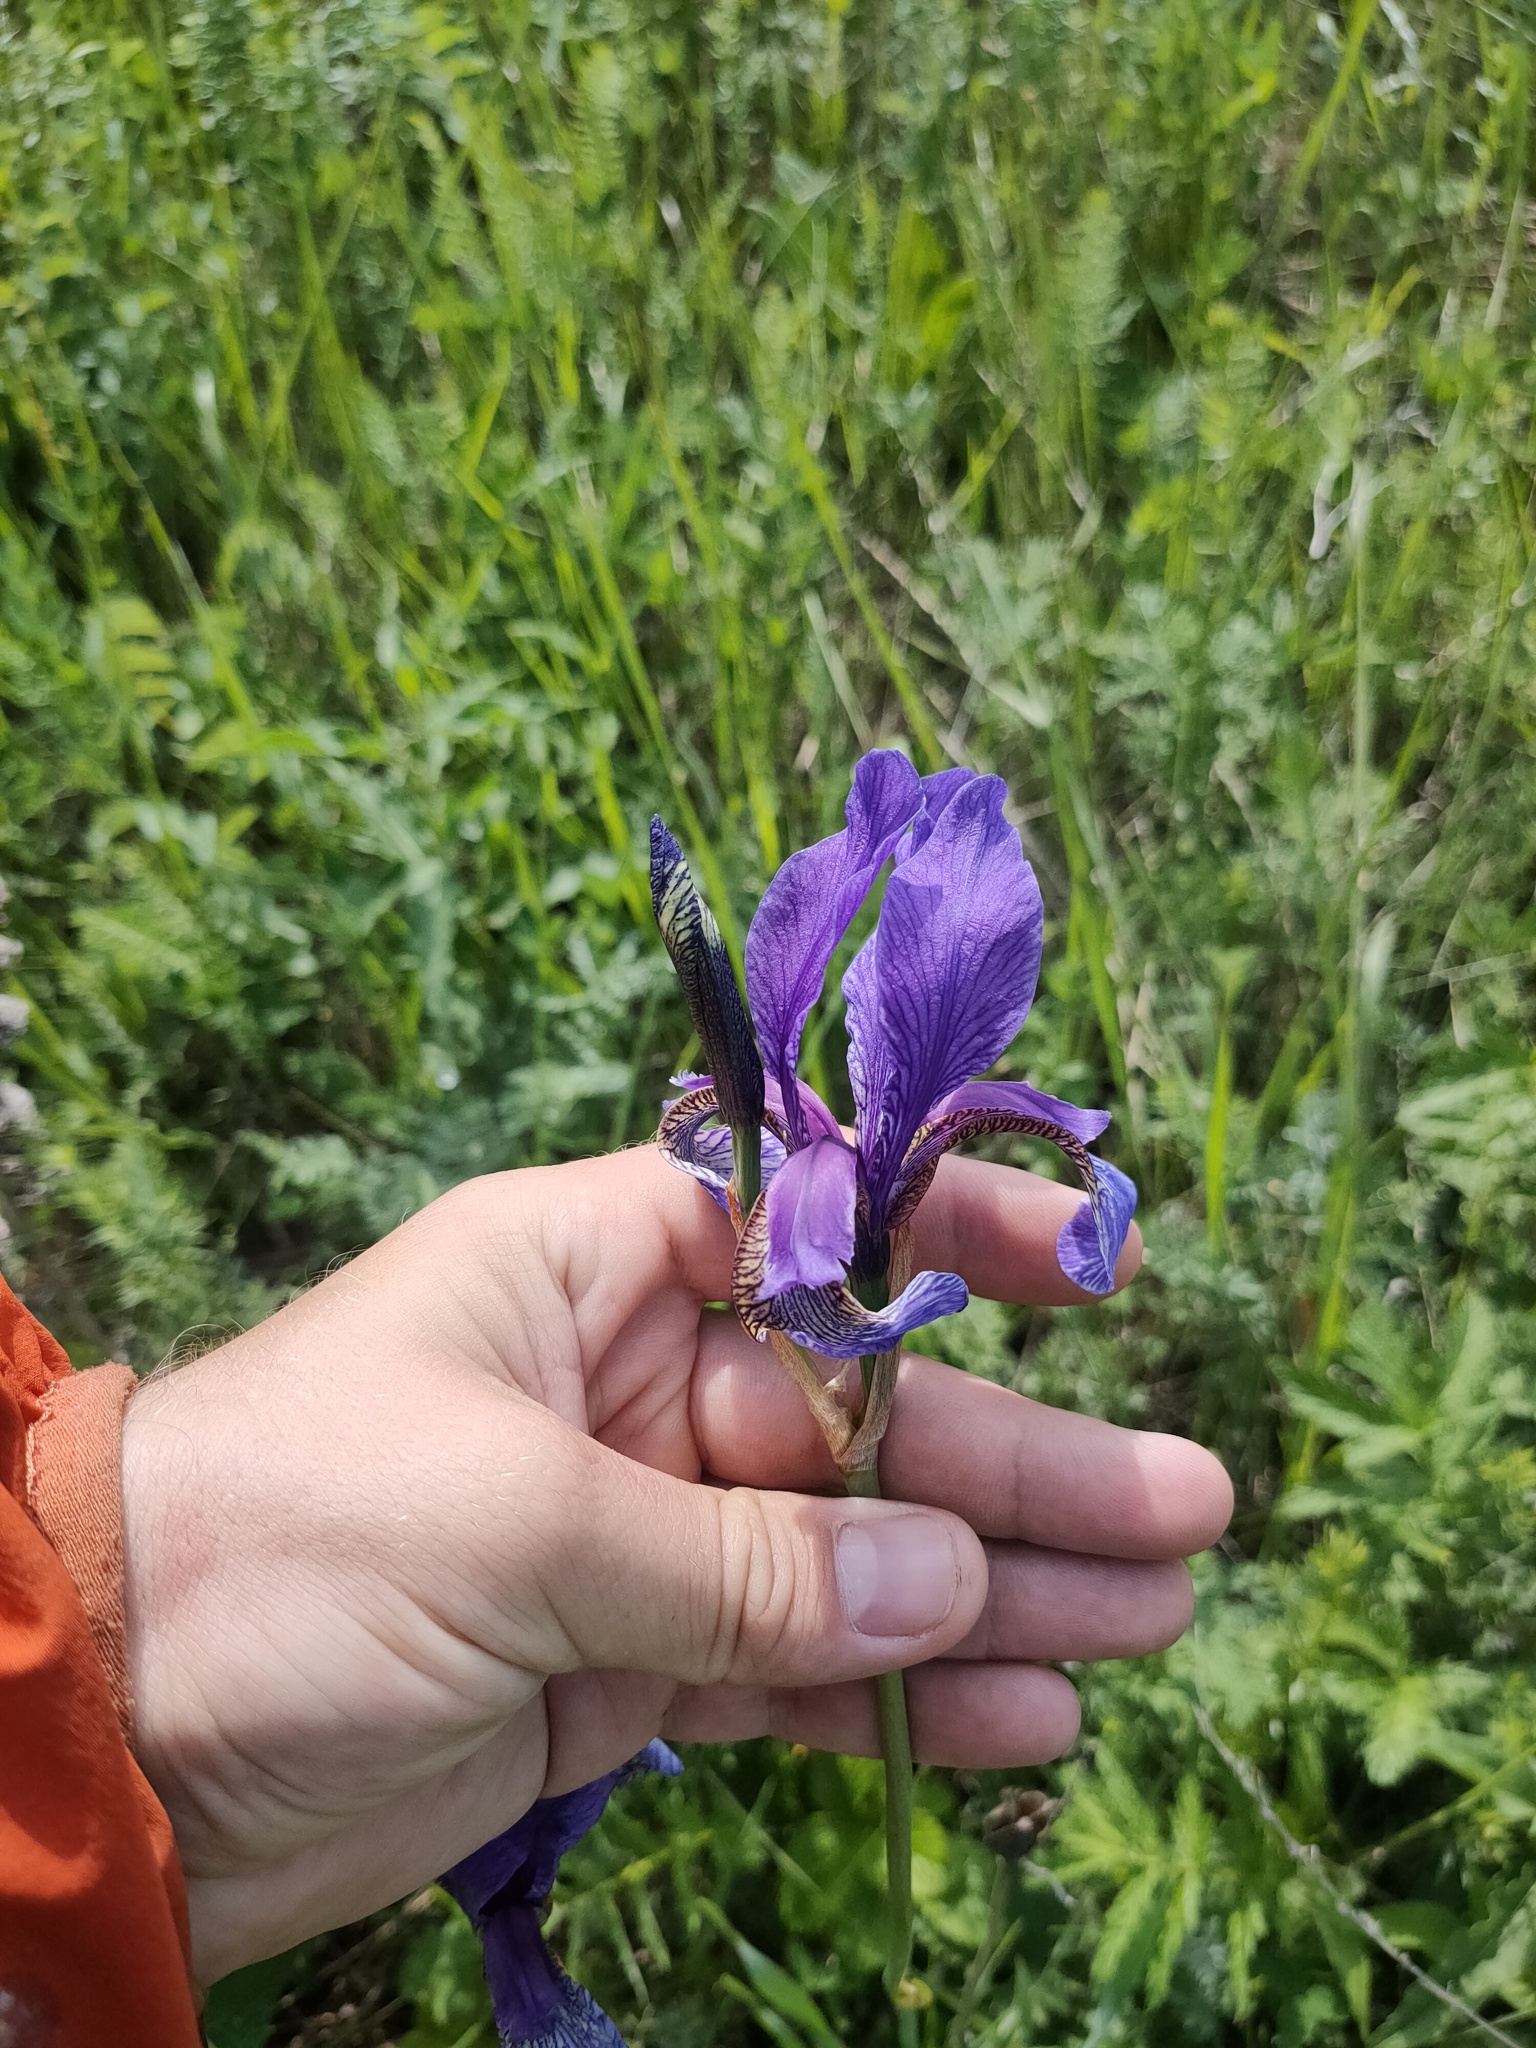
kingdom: Plantae
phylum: Tracheophyta
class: Liliopsida
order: Asparagales
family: Iridaceae
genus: Iris
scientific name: Iris sibirica
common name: Siberian iris
